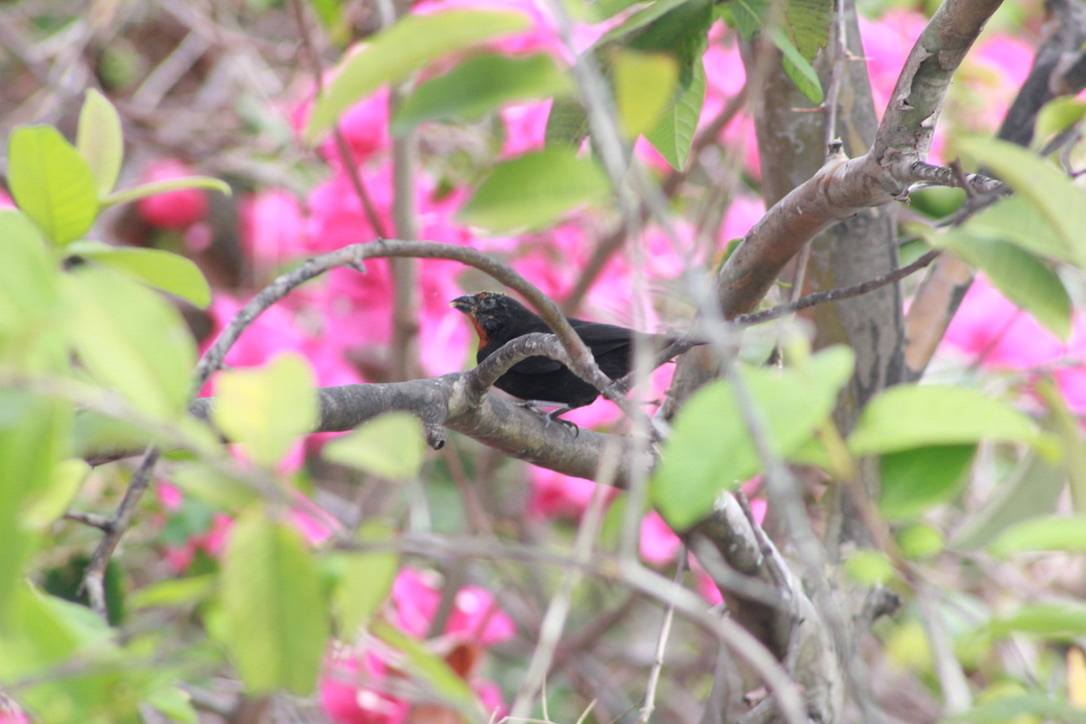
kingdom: Animalia
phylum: Chordata
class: Aves
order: Passeriformes
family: Thraupidae
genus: Loxigilla
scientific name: Loxigilla noctis
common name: Lesser antillean bullfinch
